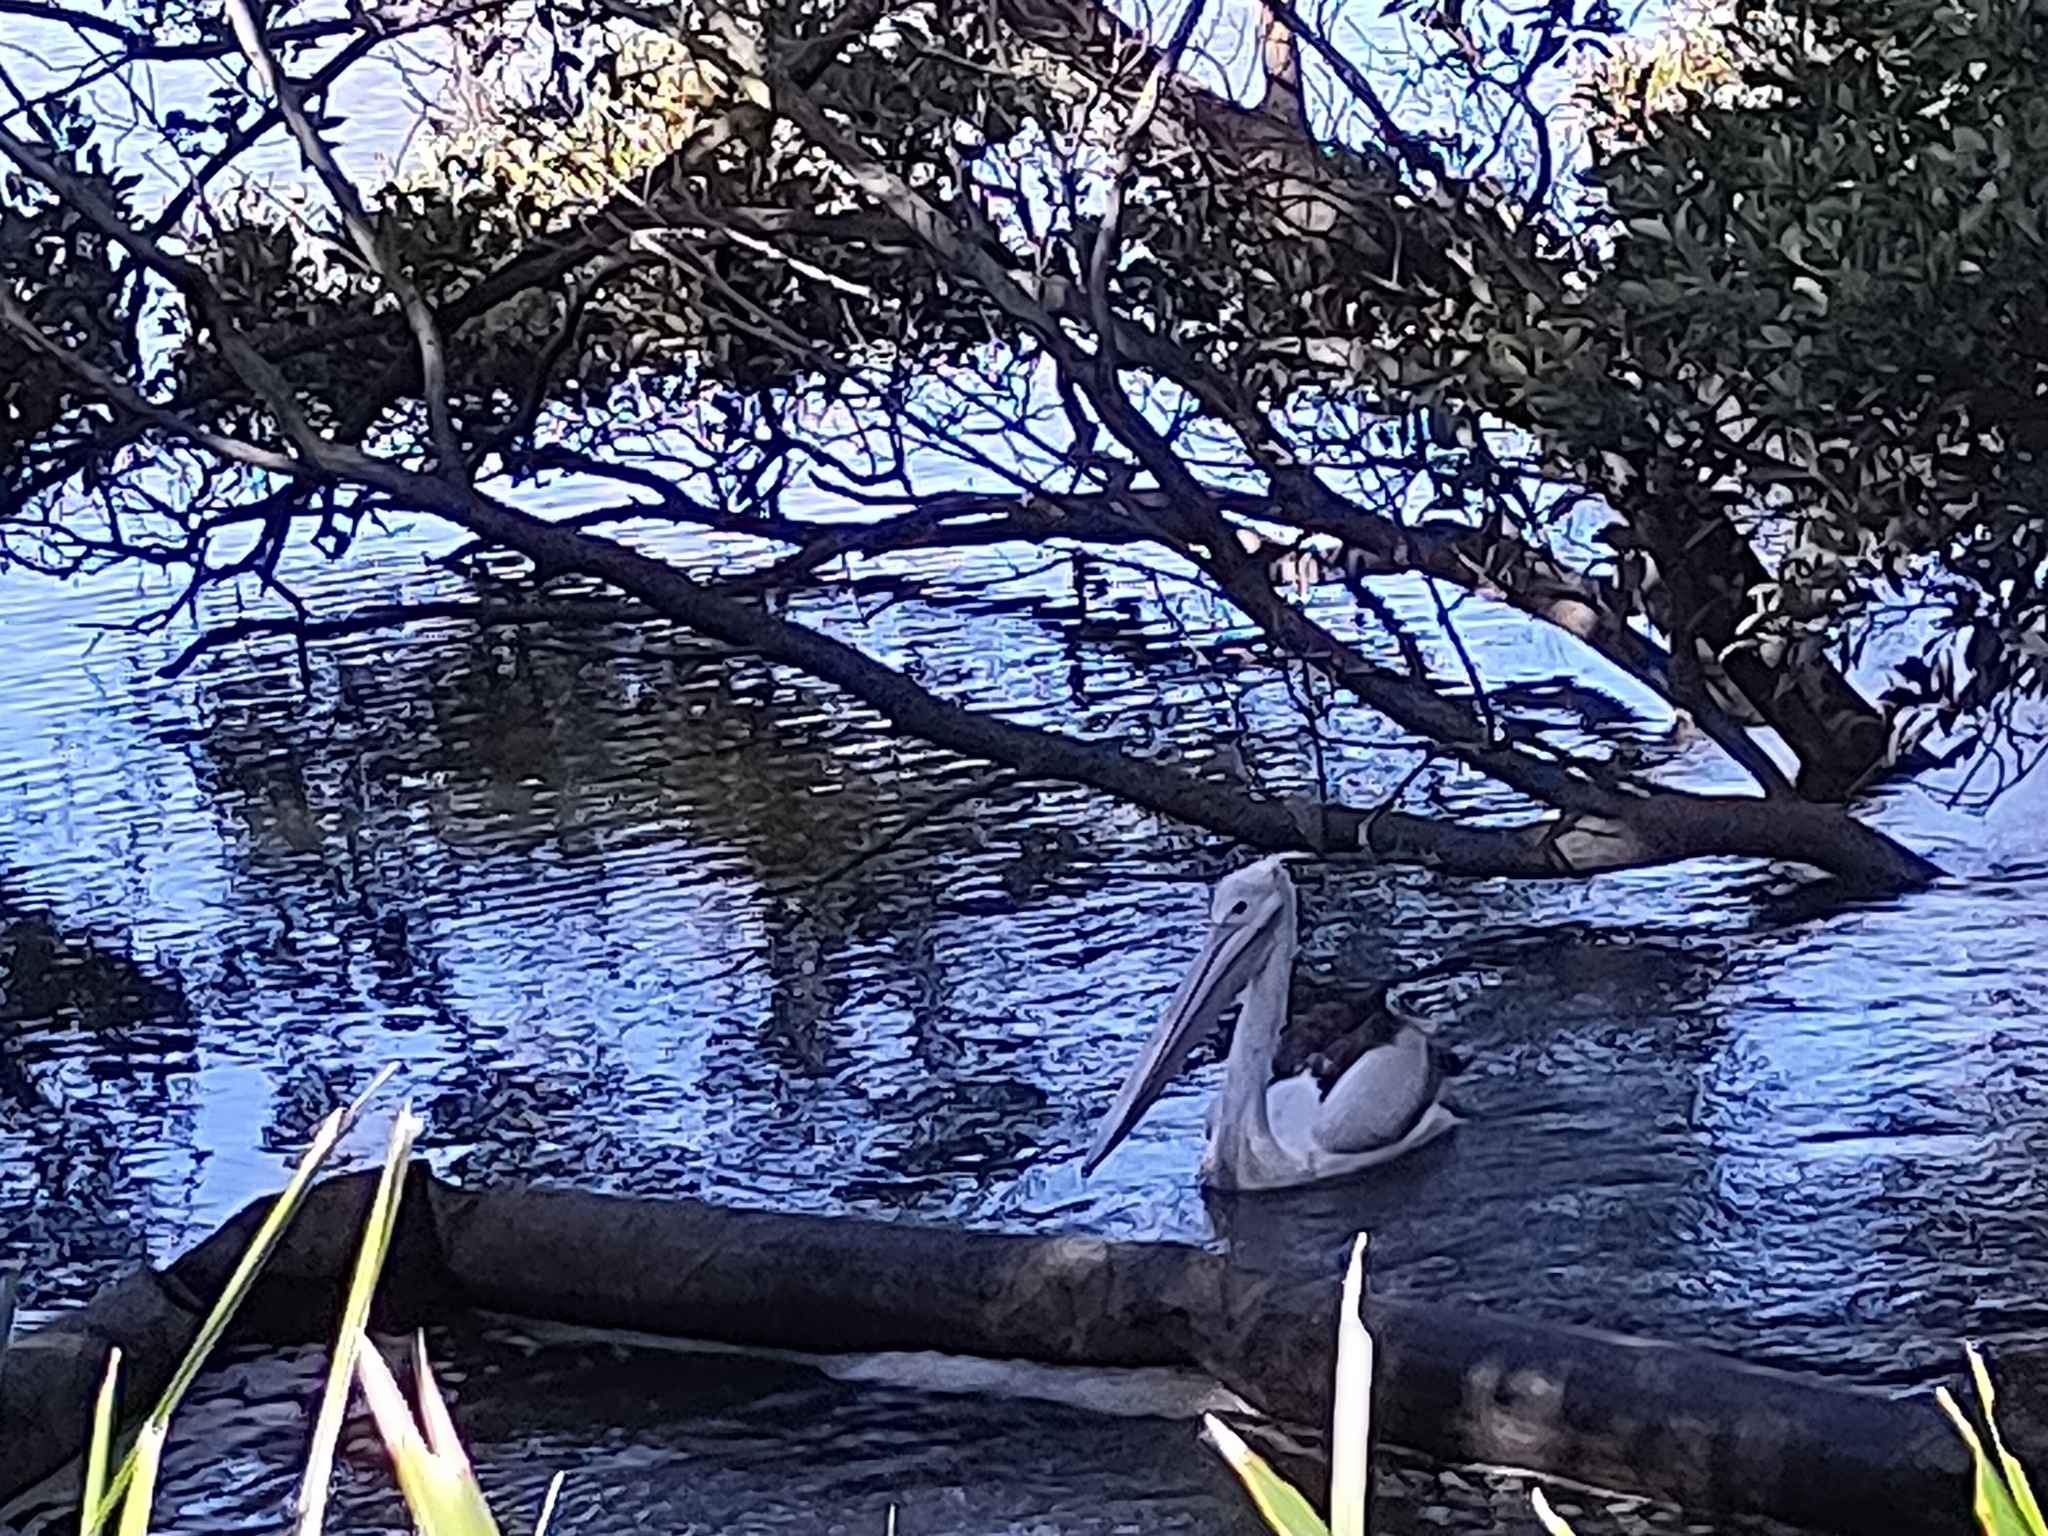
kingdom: Animalia
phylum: Chordata
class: Aves
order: Pelecaniformes
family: Pelecanidae
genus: Pelecanus
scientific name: Pelecanus conspicillatus
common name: Australian pelican
